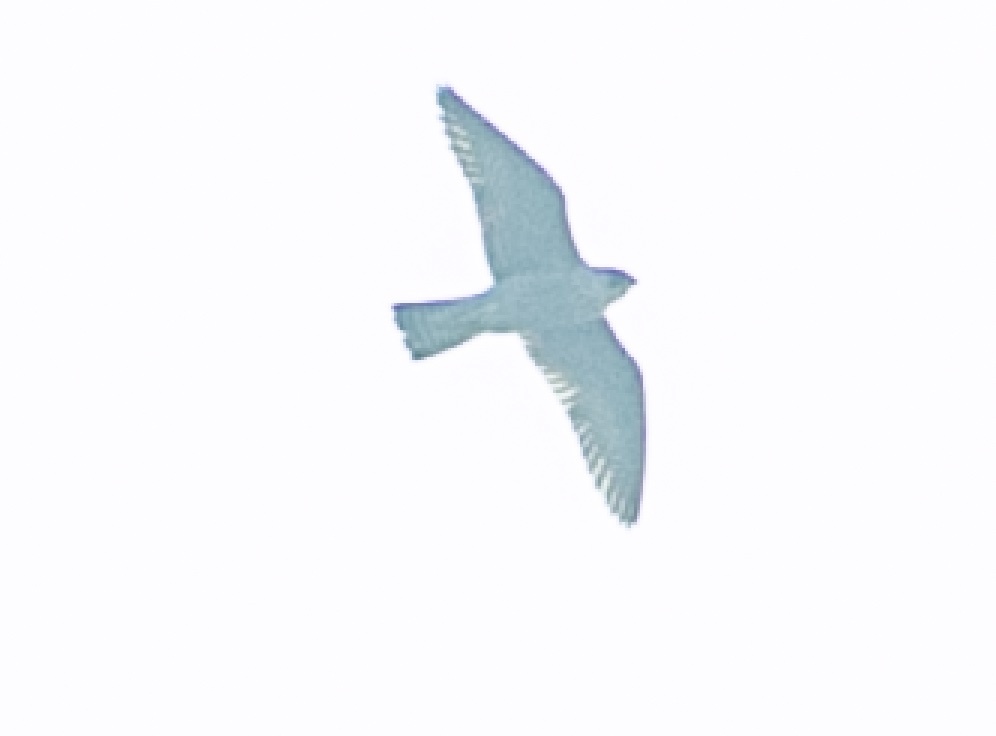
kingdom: Animalia
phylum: Chordata
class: Aves
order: Falconiformes
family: Falconidae
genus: Falco
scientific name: Falco peregrinus
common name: Peregrine falcon
